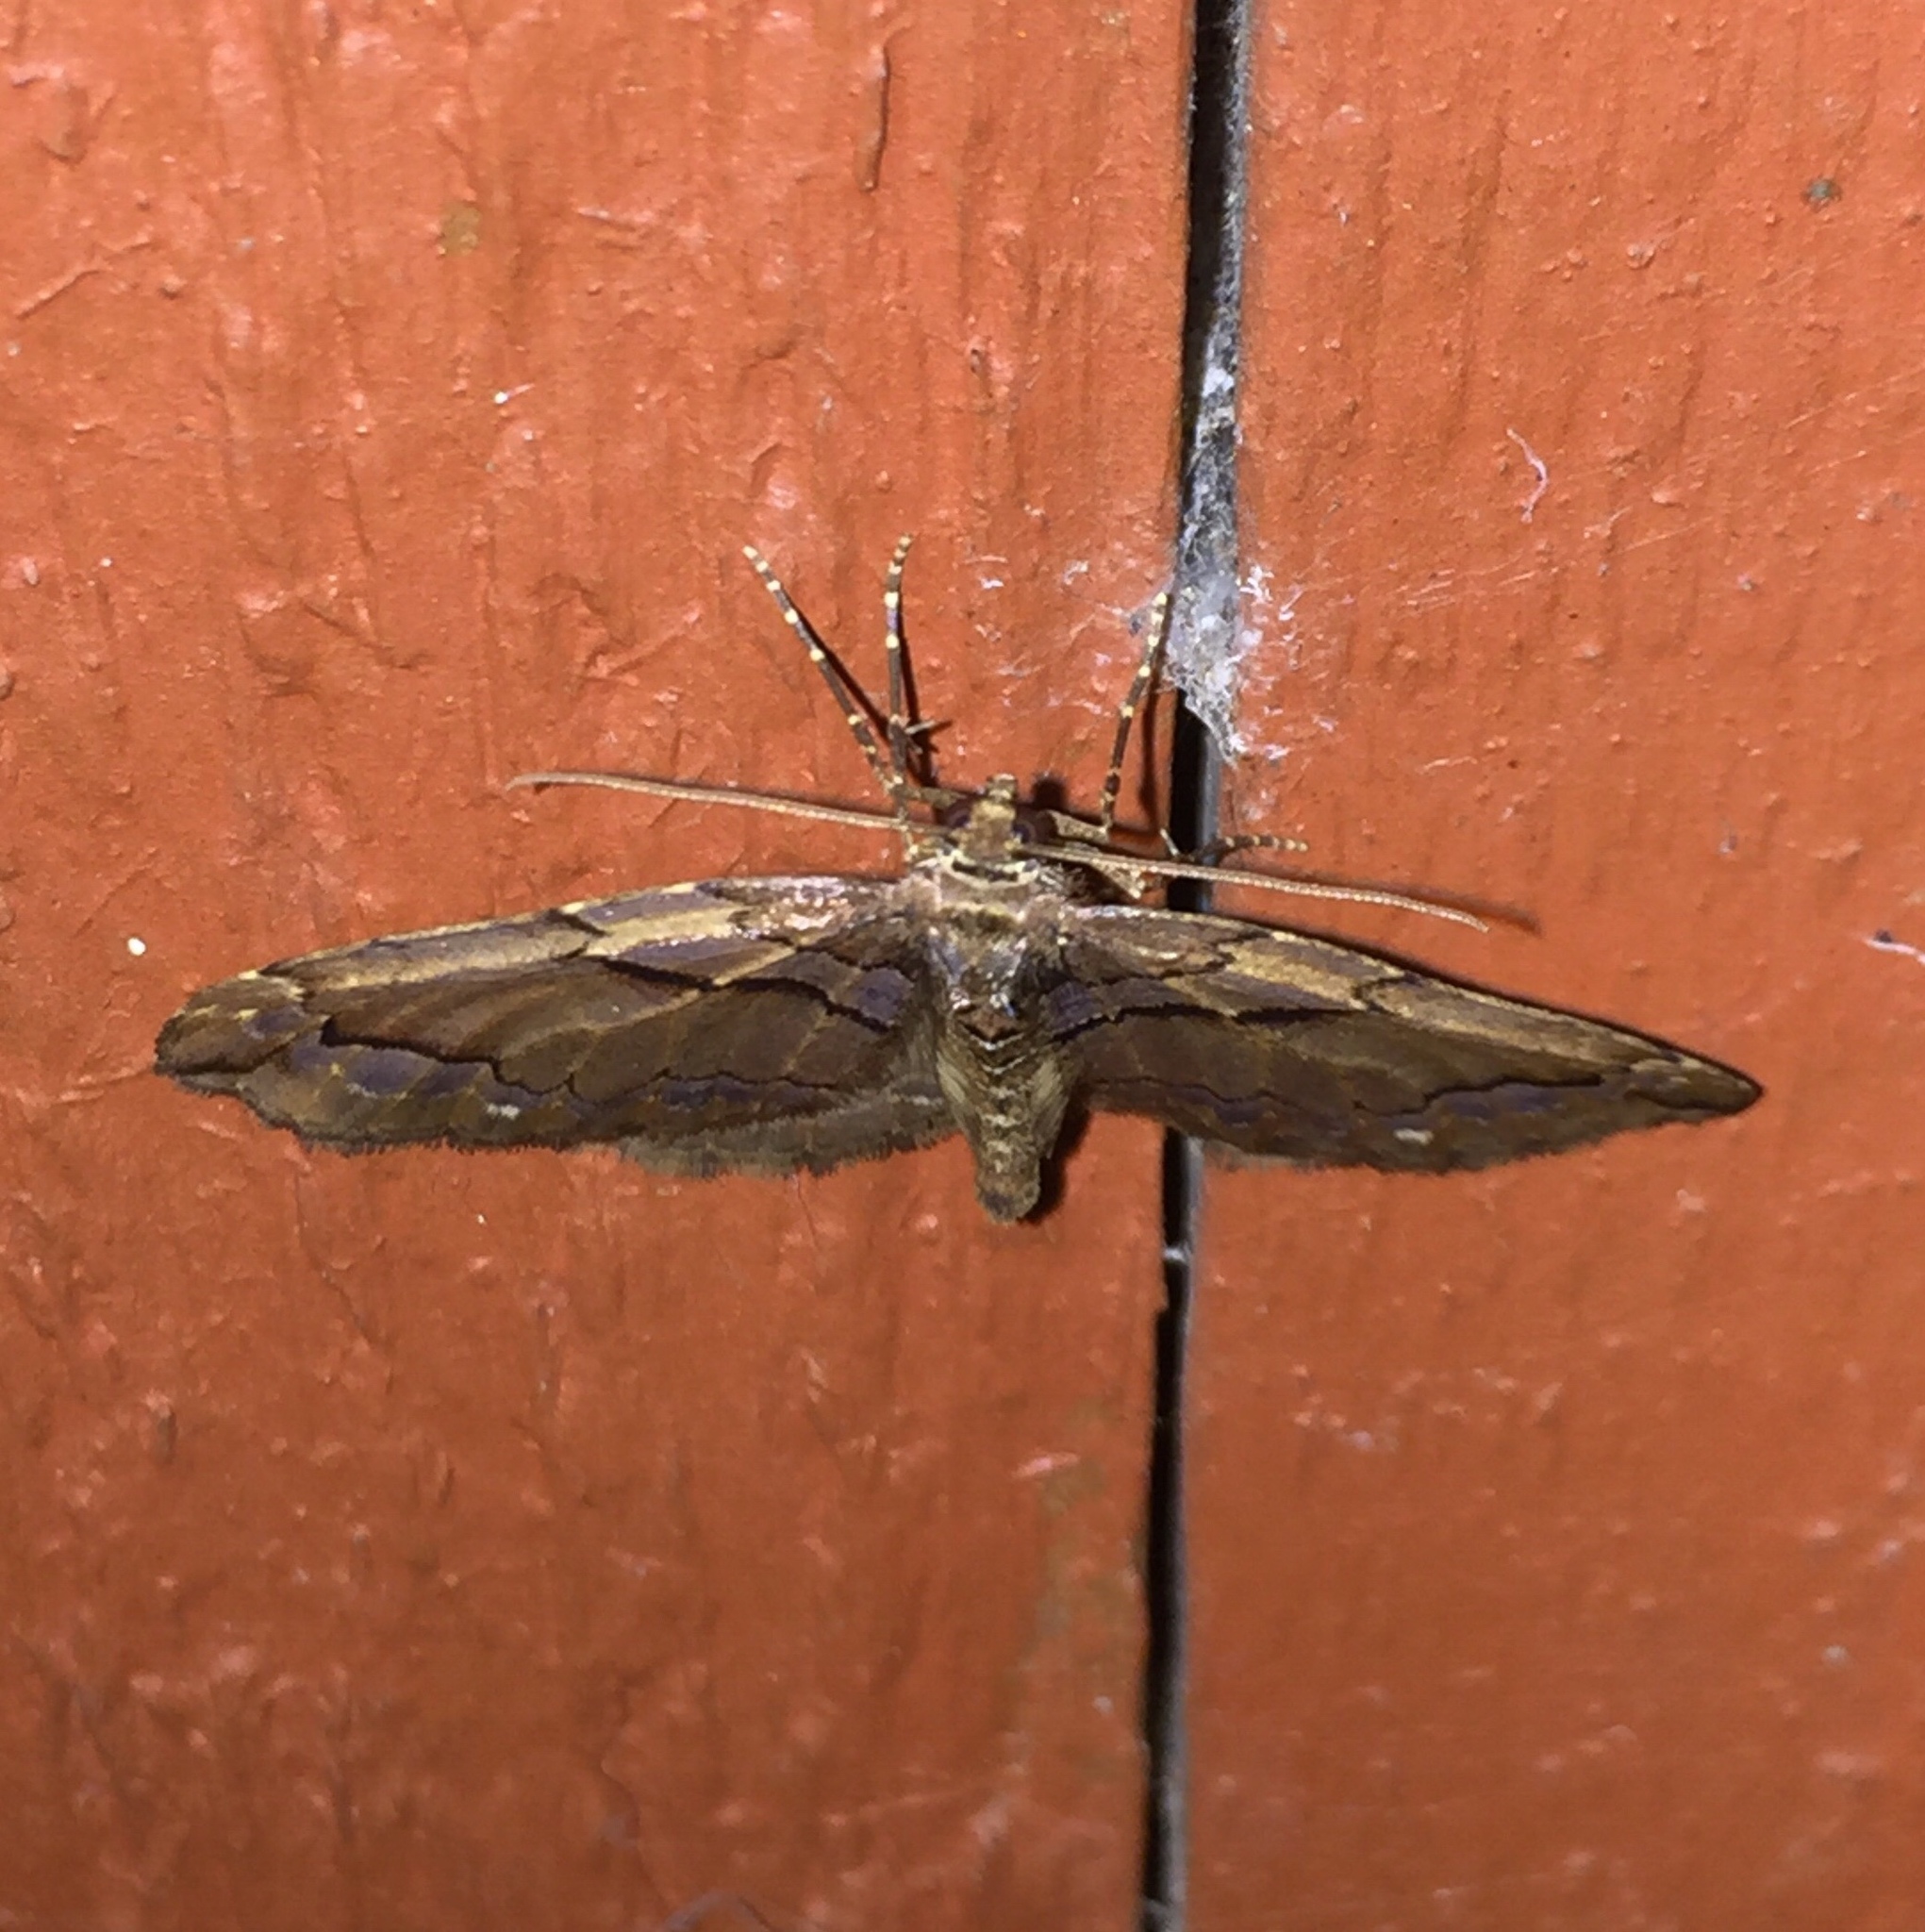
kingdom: Animalia
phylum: Arthropoda
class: Insecta
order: Lepidoptera
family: Geometridae
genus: Anticlea
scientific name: Anticlea vasiliata
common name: Variable carpet
